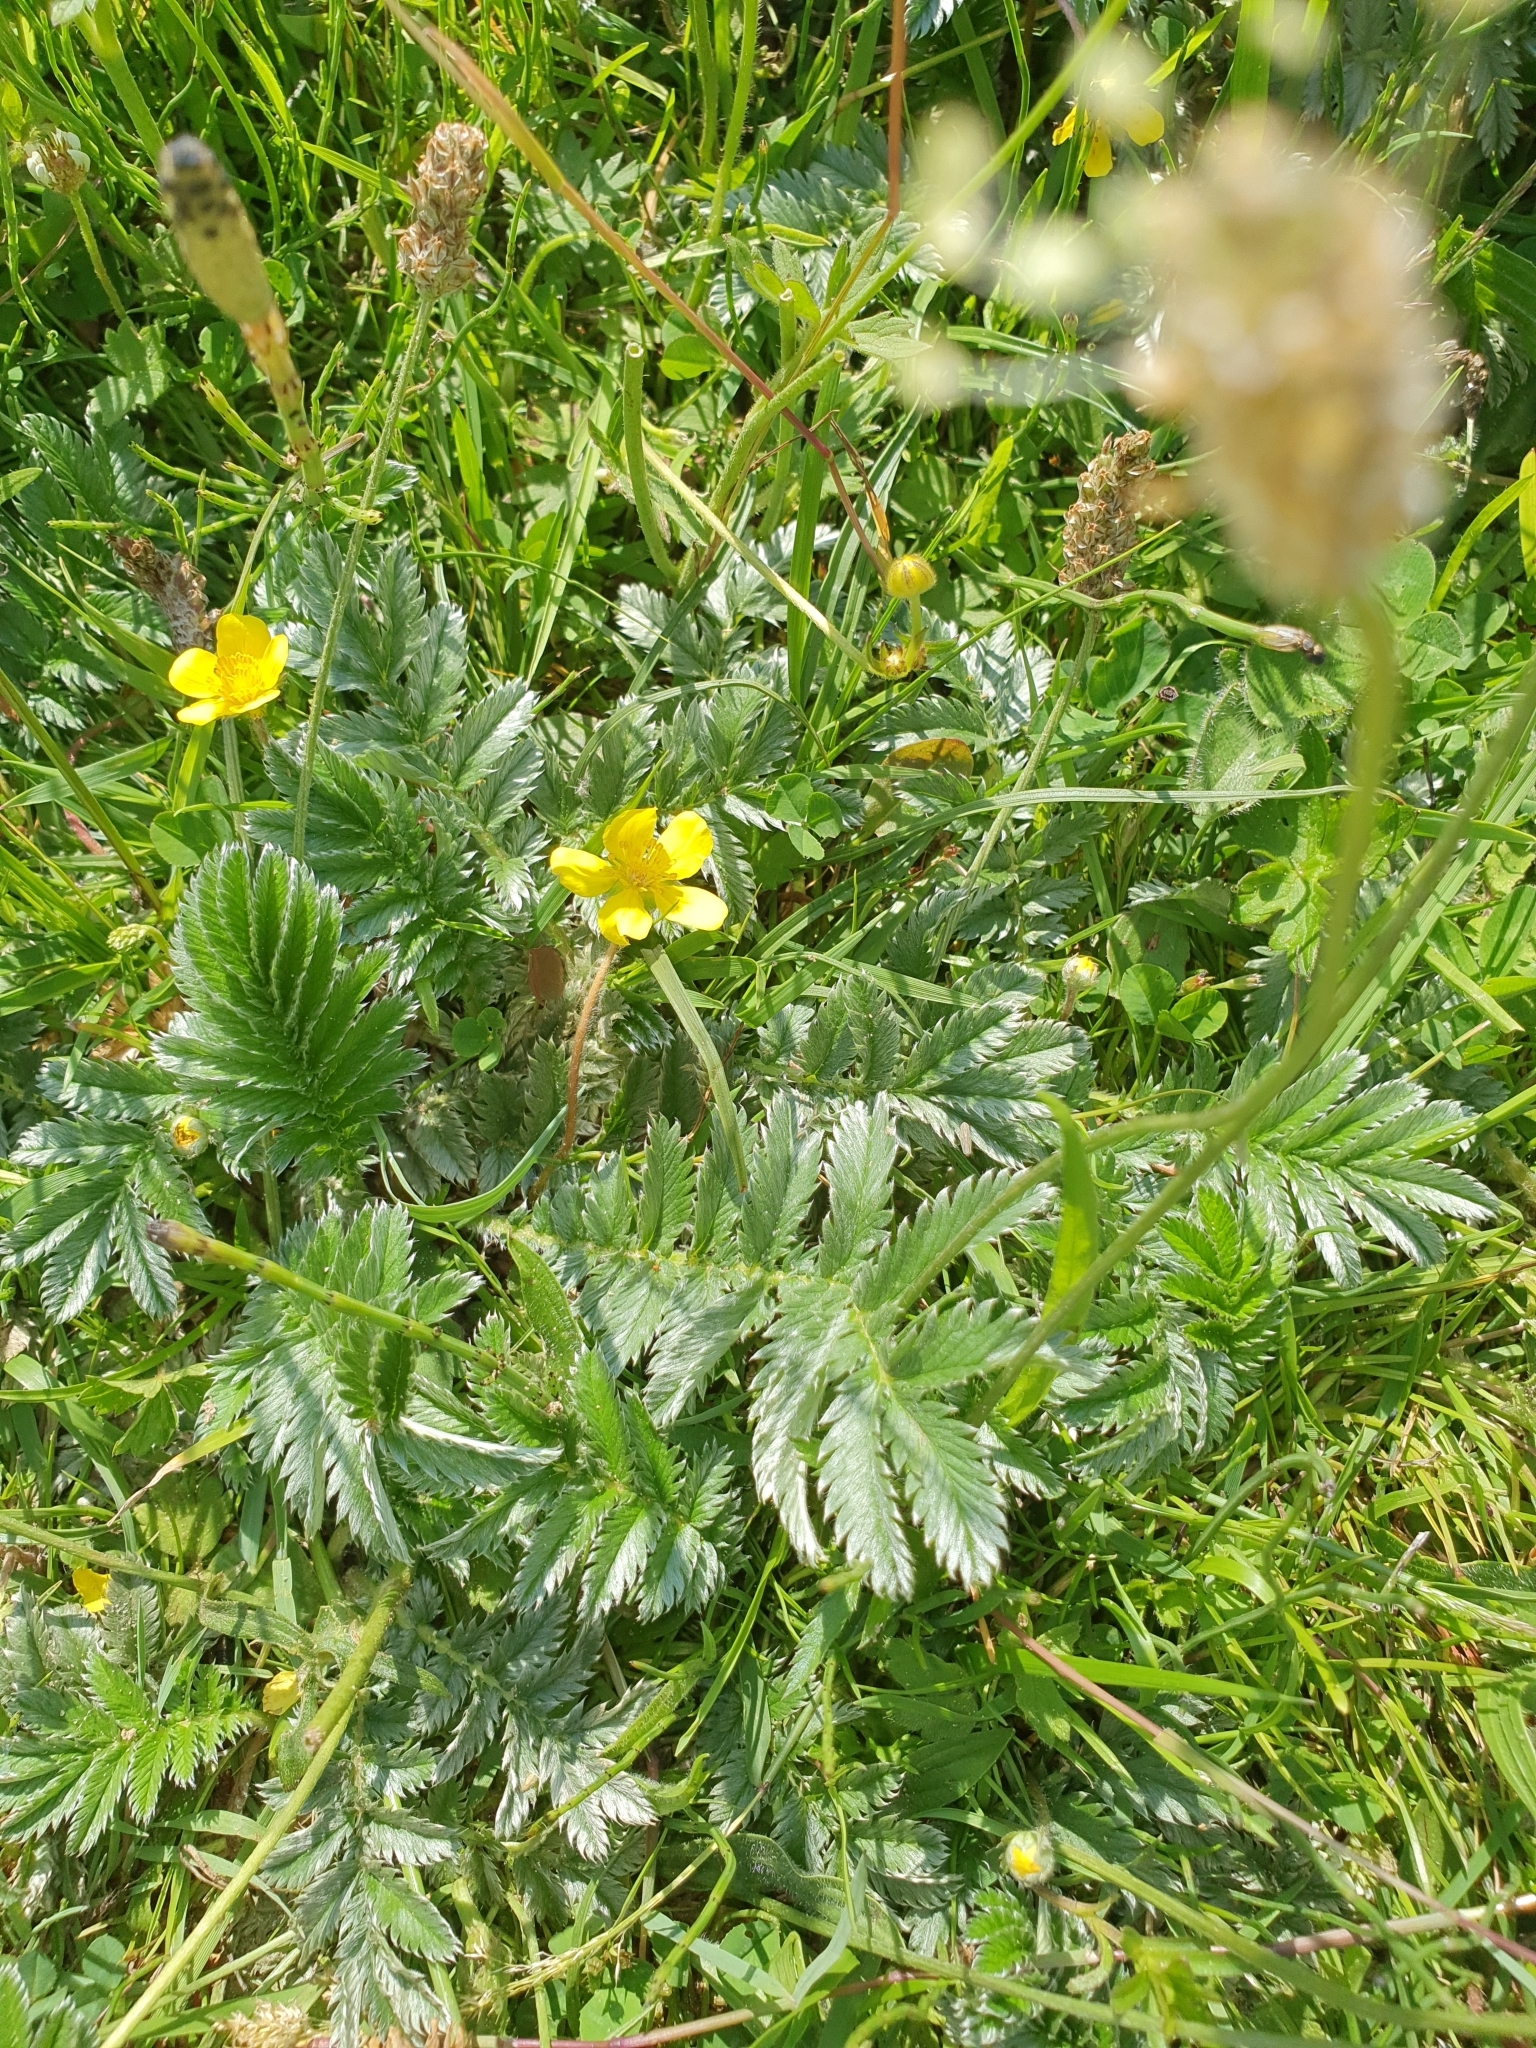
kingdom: Plantae
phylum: Tracheophyta
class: Magnoliopsida
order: Rosales
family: Rosaceae
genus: Argentina
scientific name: Argentina anserina
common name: Common silverweed
